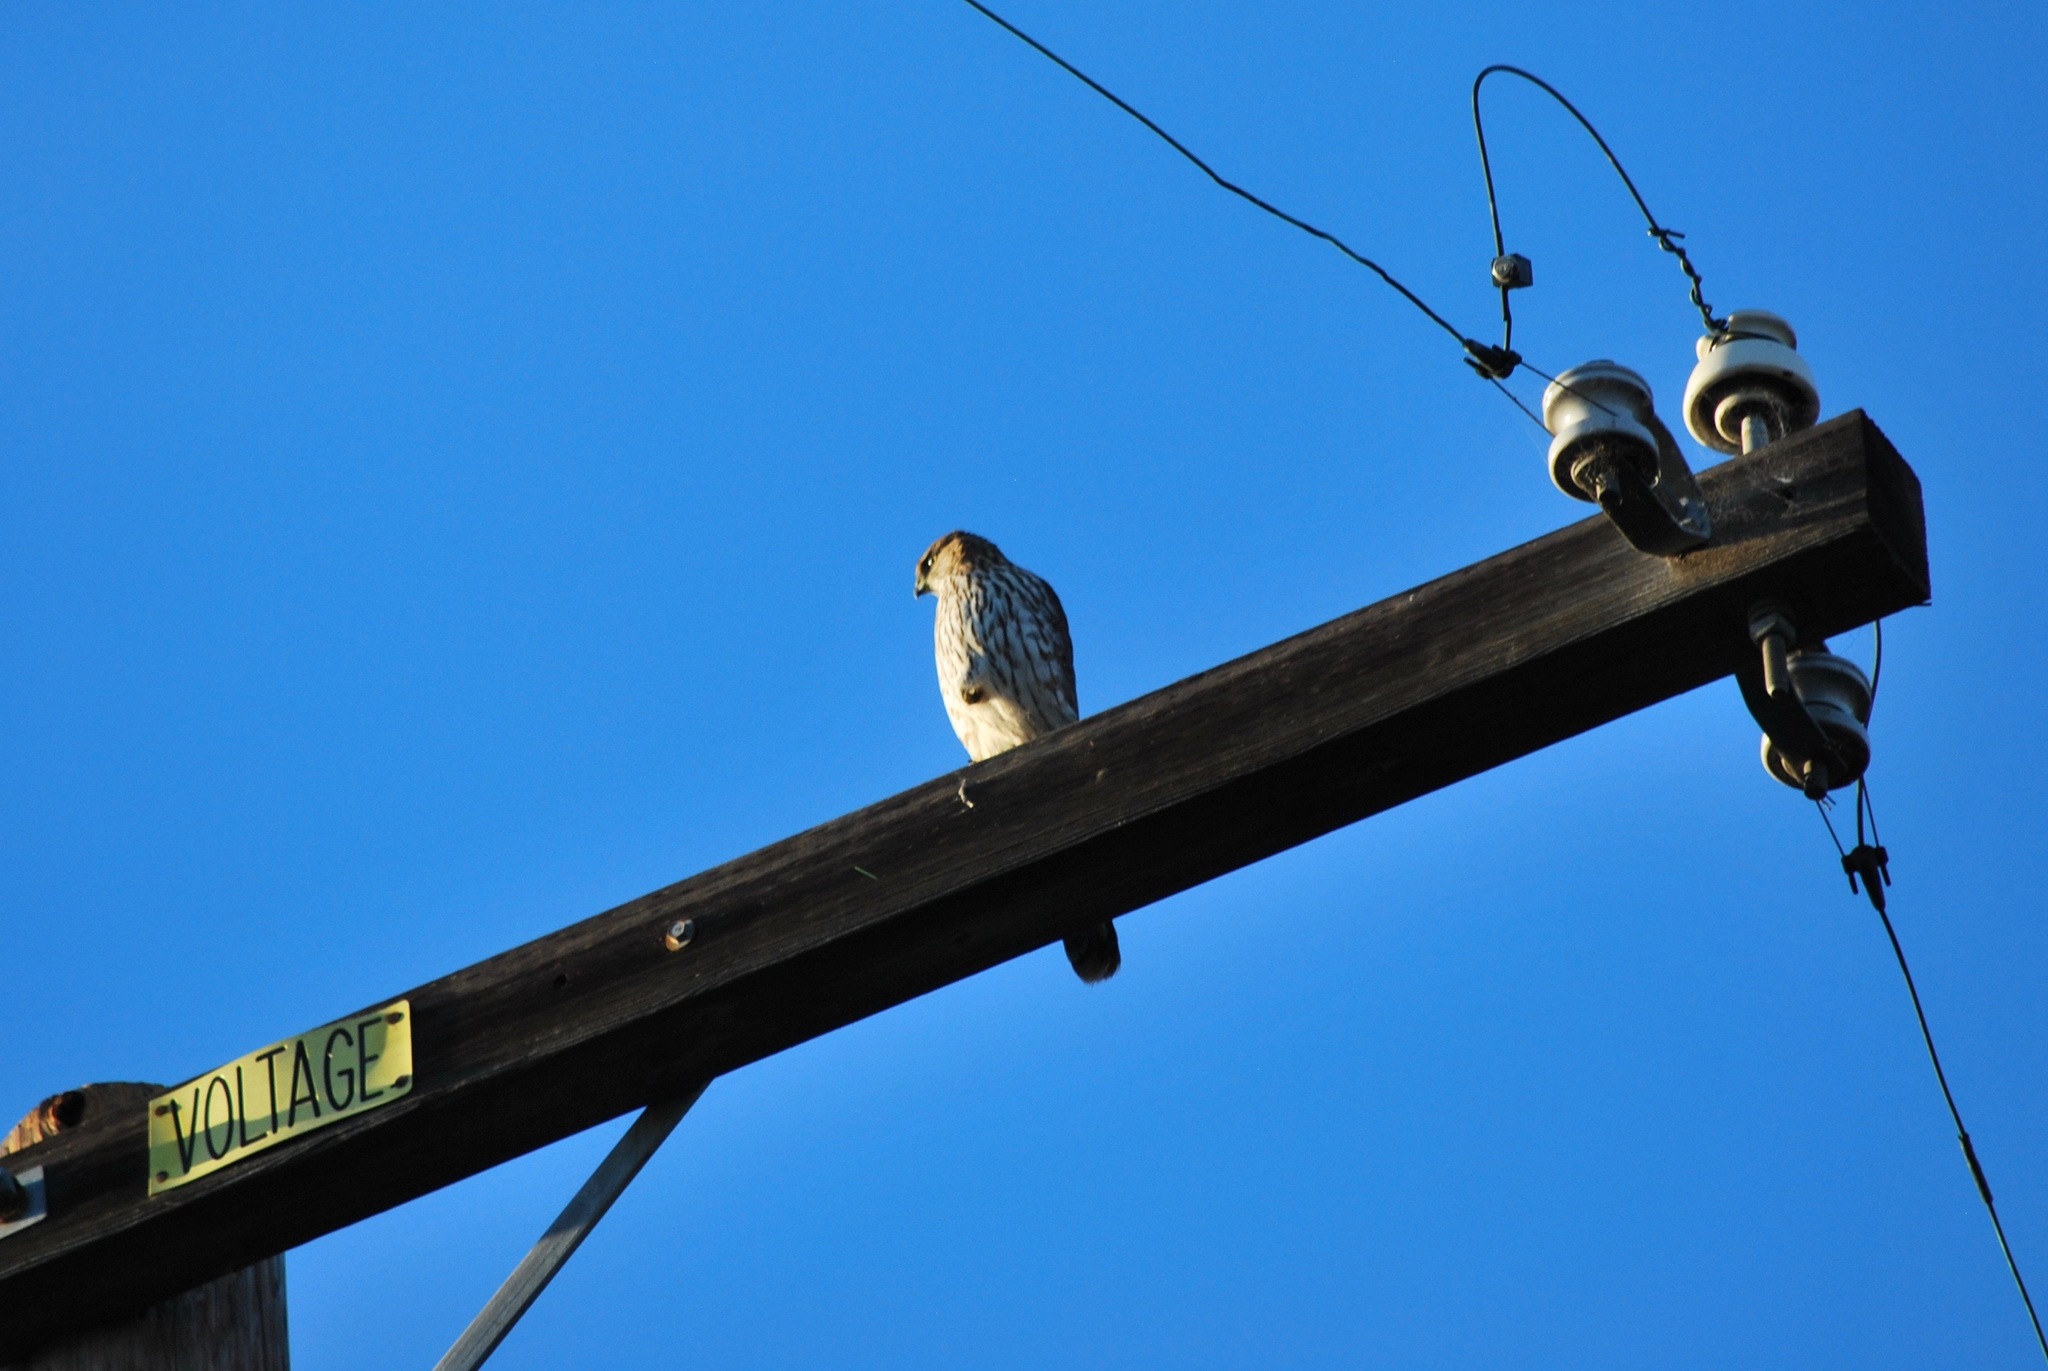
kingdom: Animalia
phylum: Chordata
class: Aves
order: Accipitriformes
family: Accipitridae
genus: Accipiter
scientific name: Accipiter cooperii
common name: Cooper's hawk
